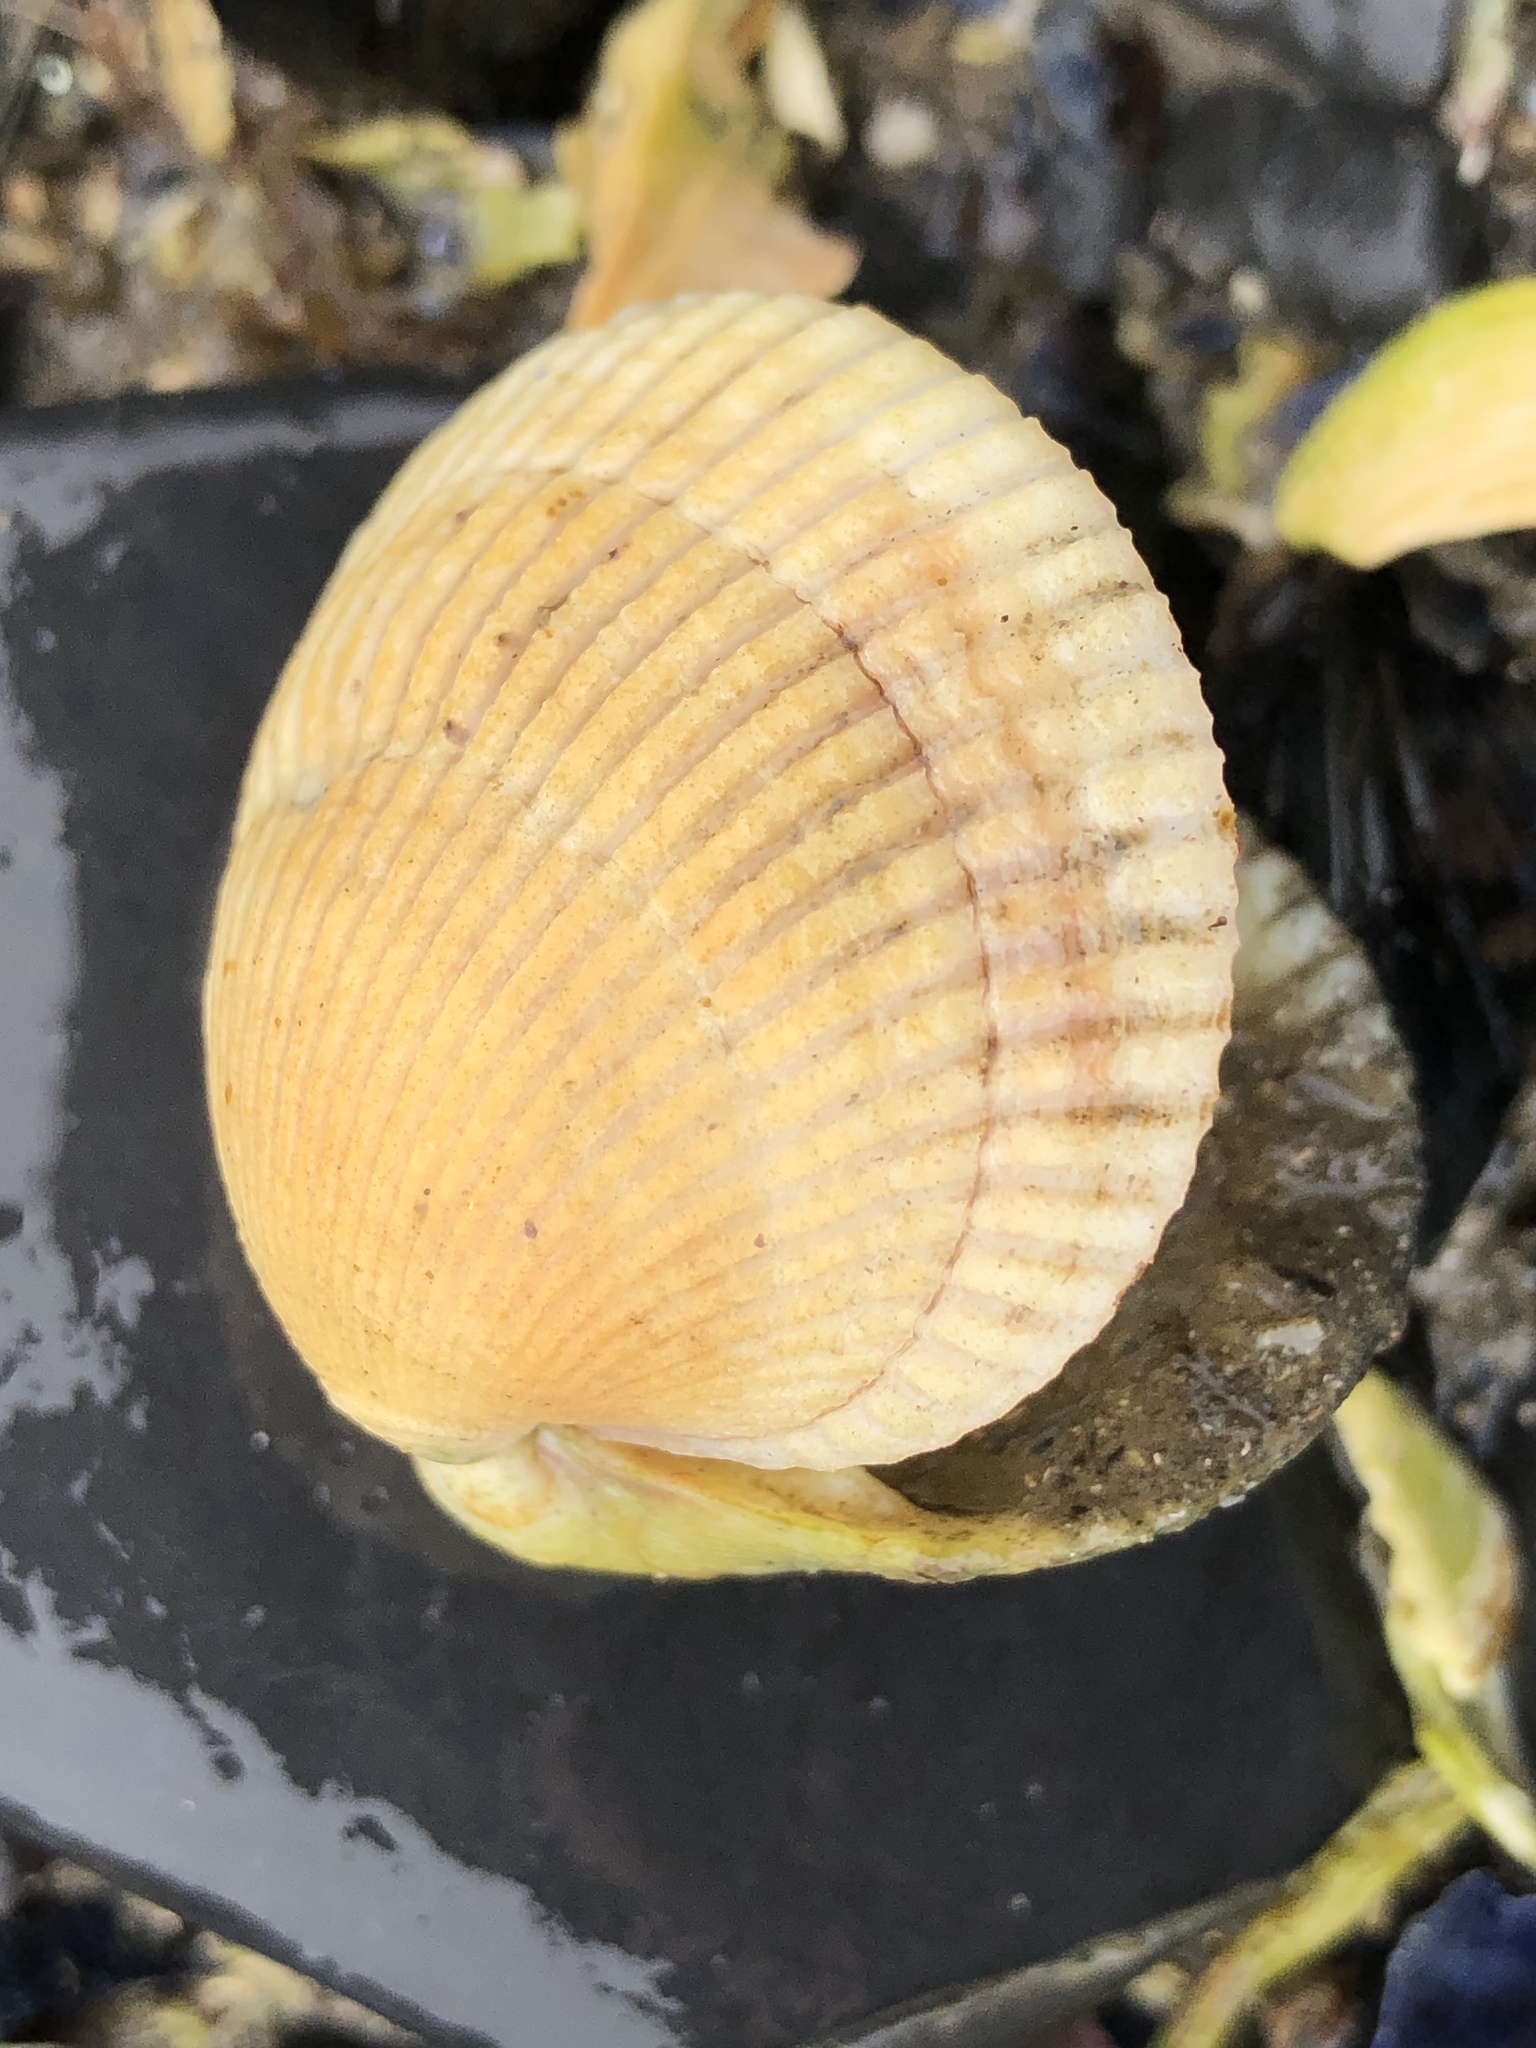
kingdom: Animalia
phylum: Mollusca
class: Bivalvia
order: Cardiida
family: Cardiidae
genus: Clinocardium
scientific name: Clinocardium nuttallii
